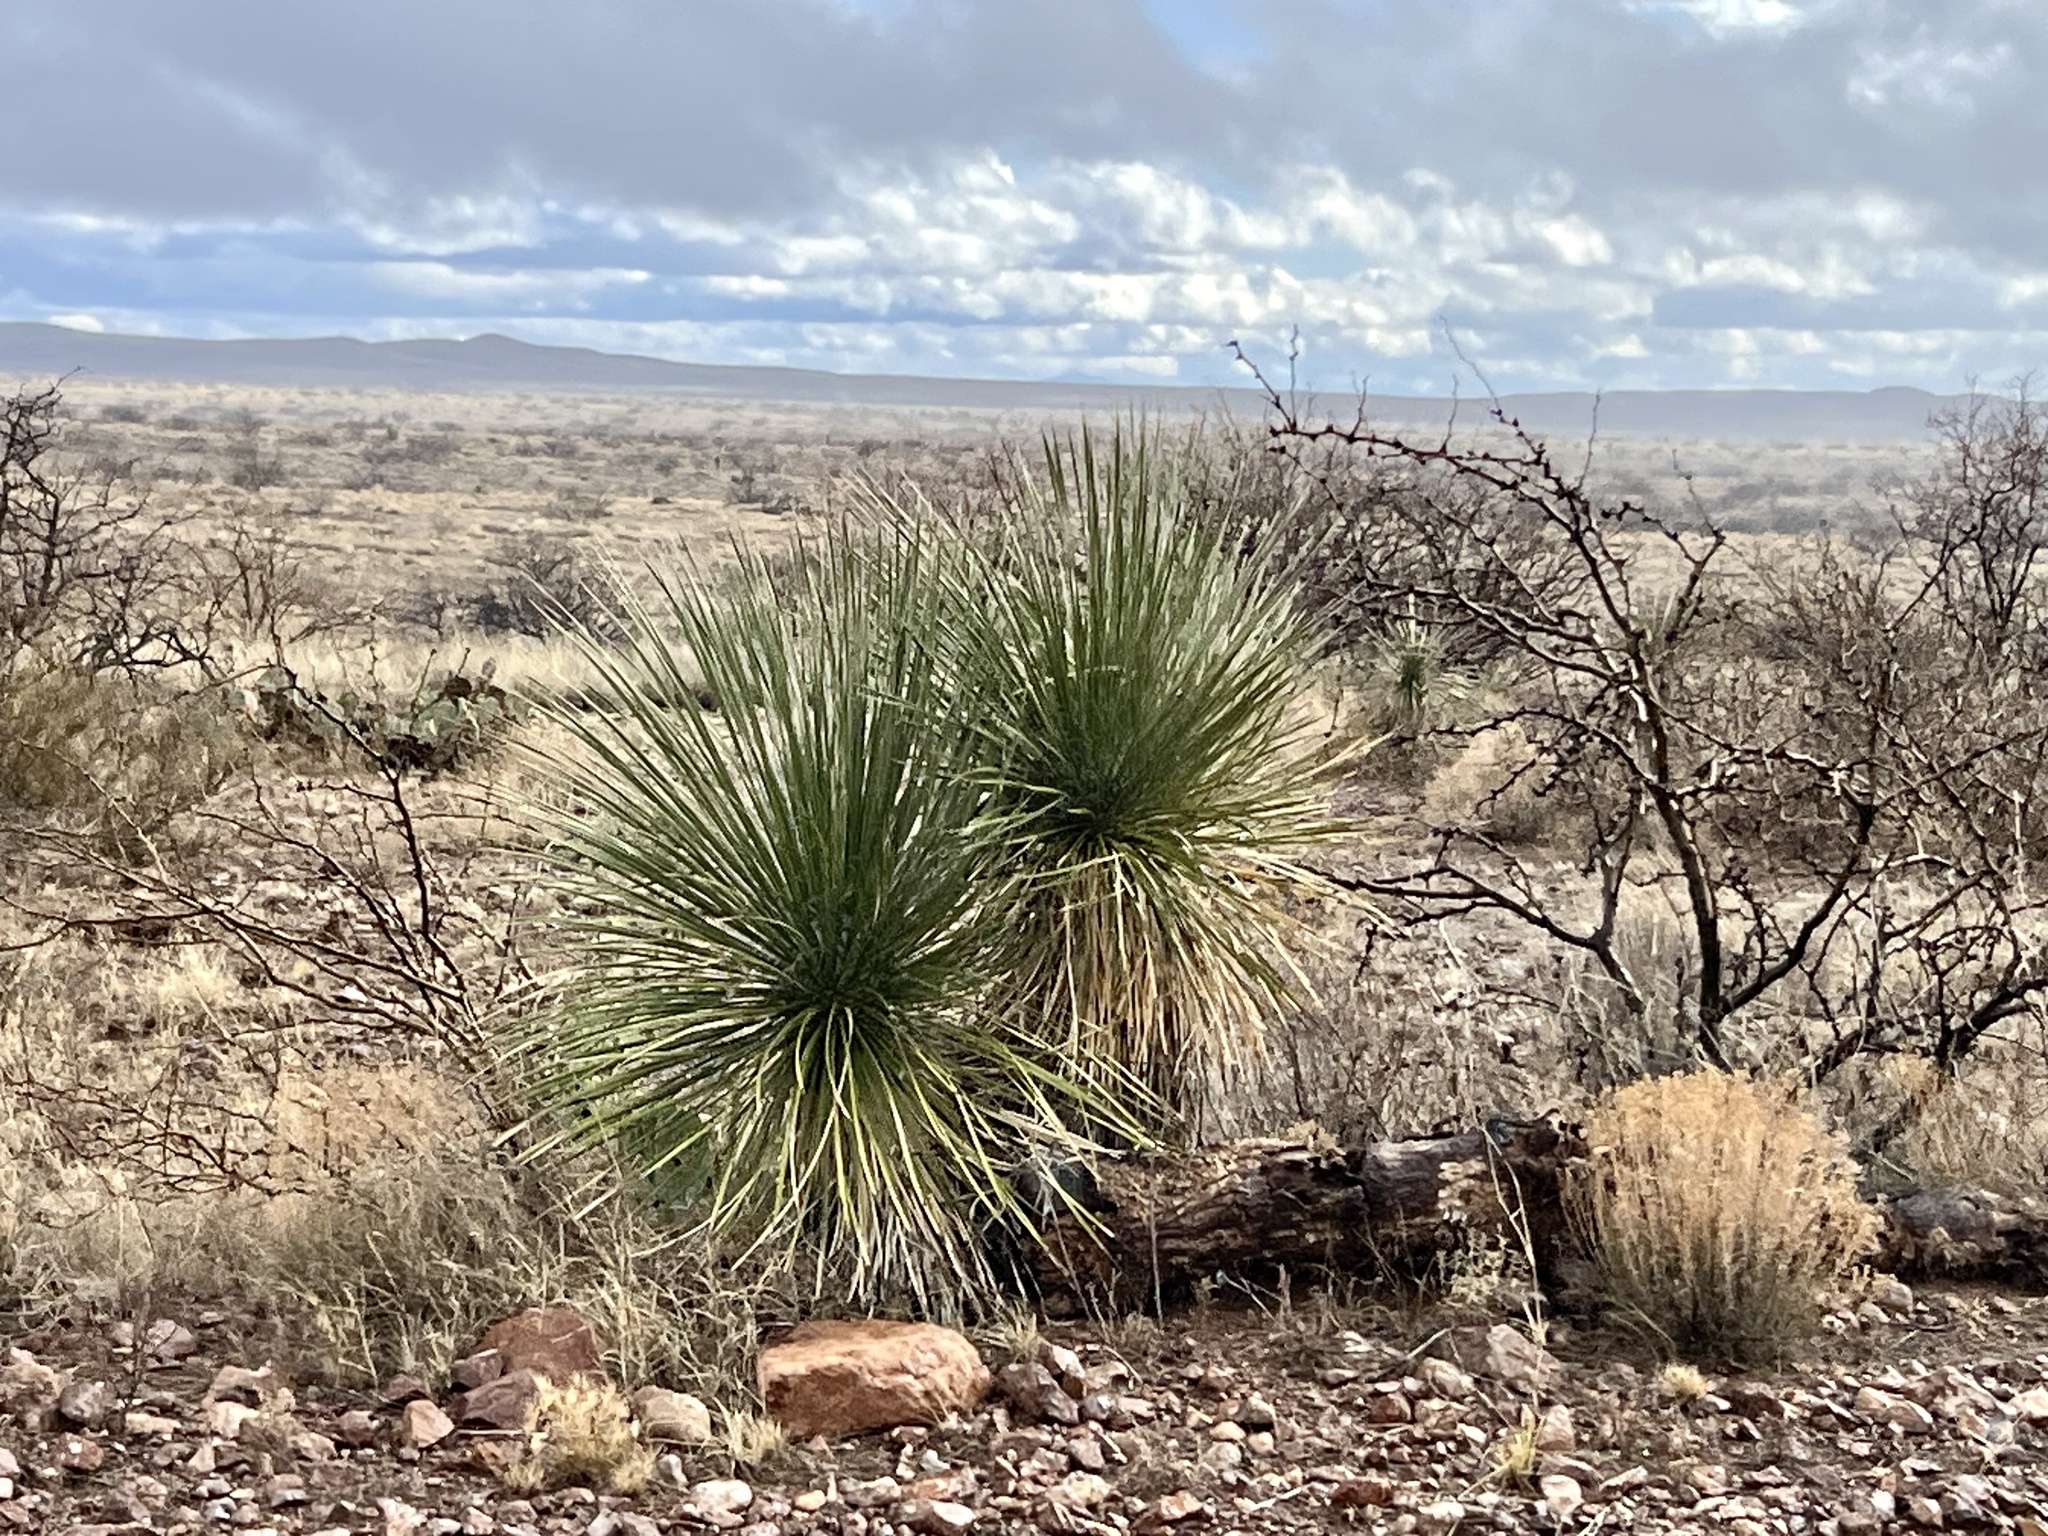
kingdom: Plantae
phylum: Tracheophyta
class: Liliopsida
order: Asparagales
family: Asparagaceae
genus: Yucca
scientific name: Yucca elata
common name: Palmella
